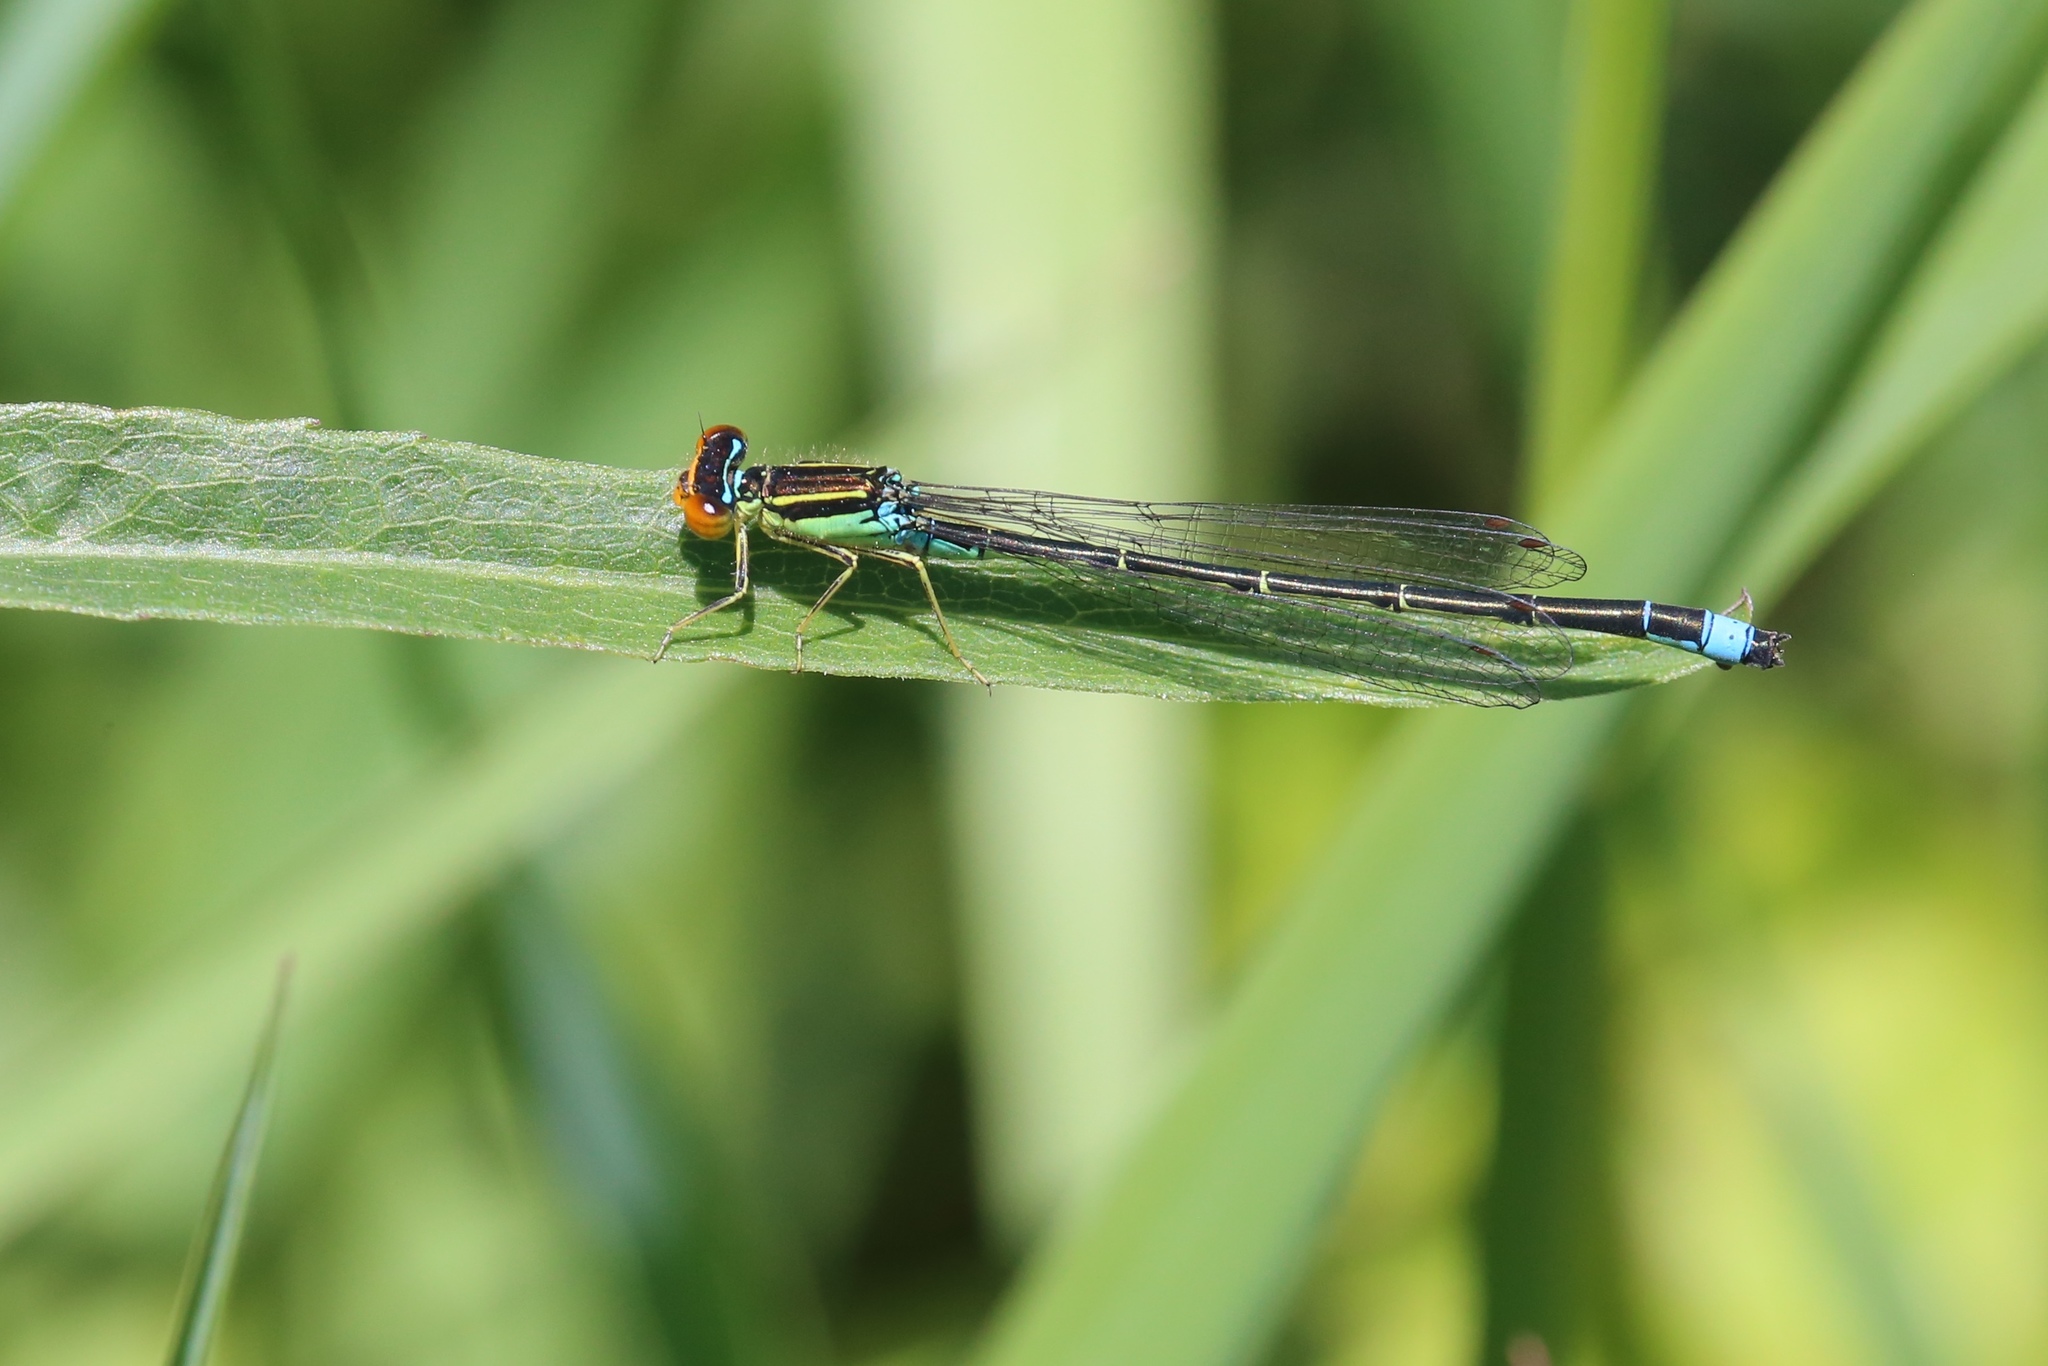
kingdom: Animalia
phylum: Arthropoda
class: Insecta
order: Odonata
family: Coenagrionidae
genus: Enallagma
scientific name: Enallagma antennatum
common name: Rainbow bluet
